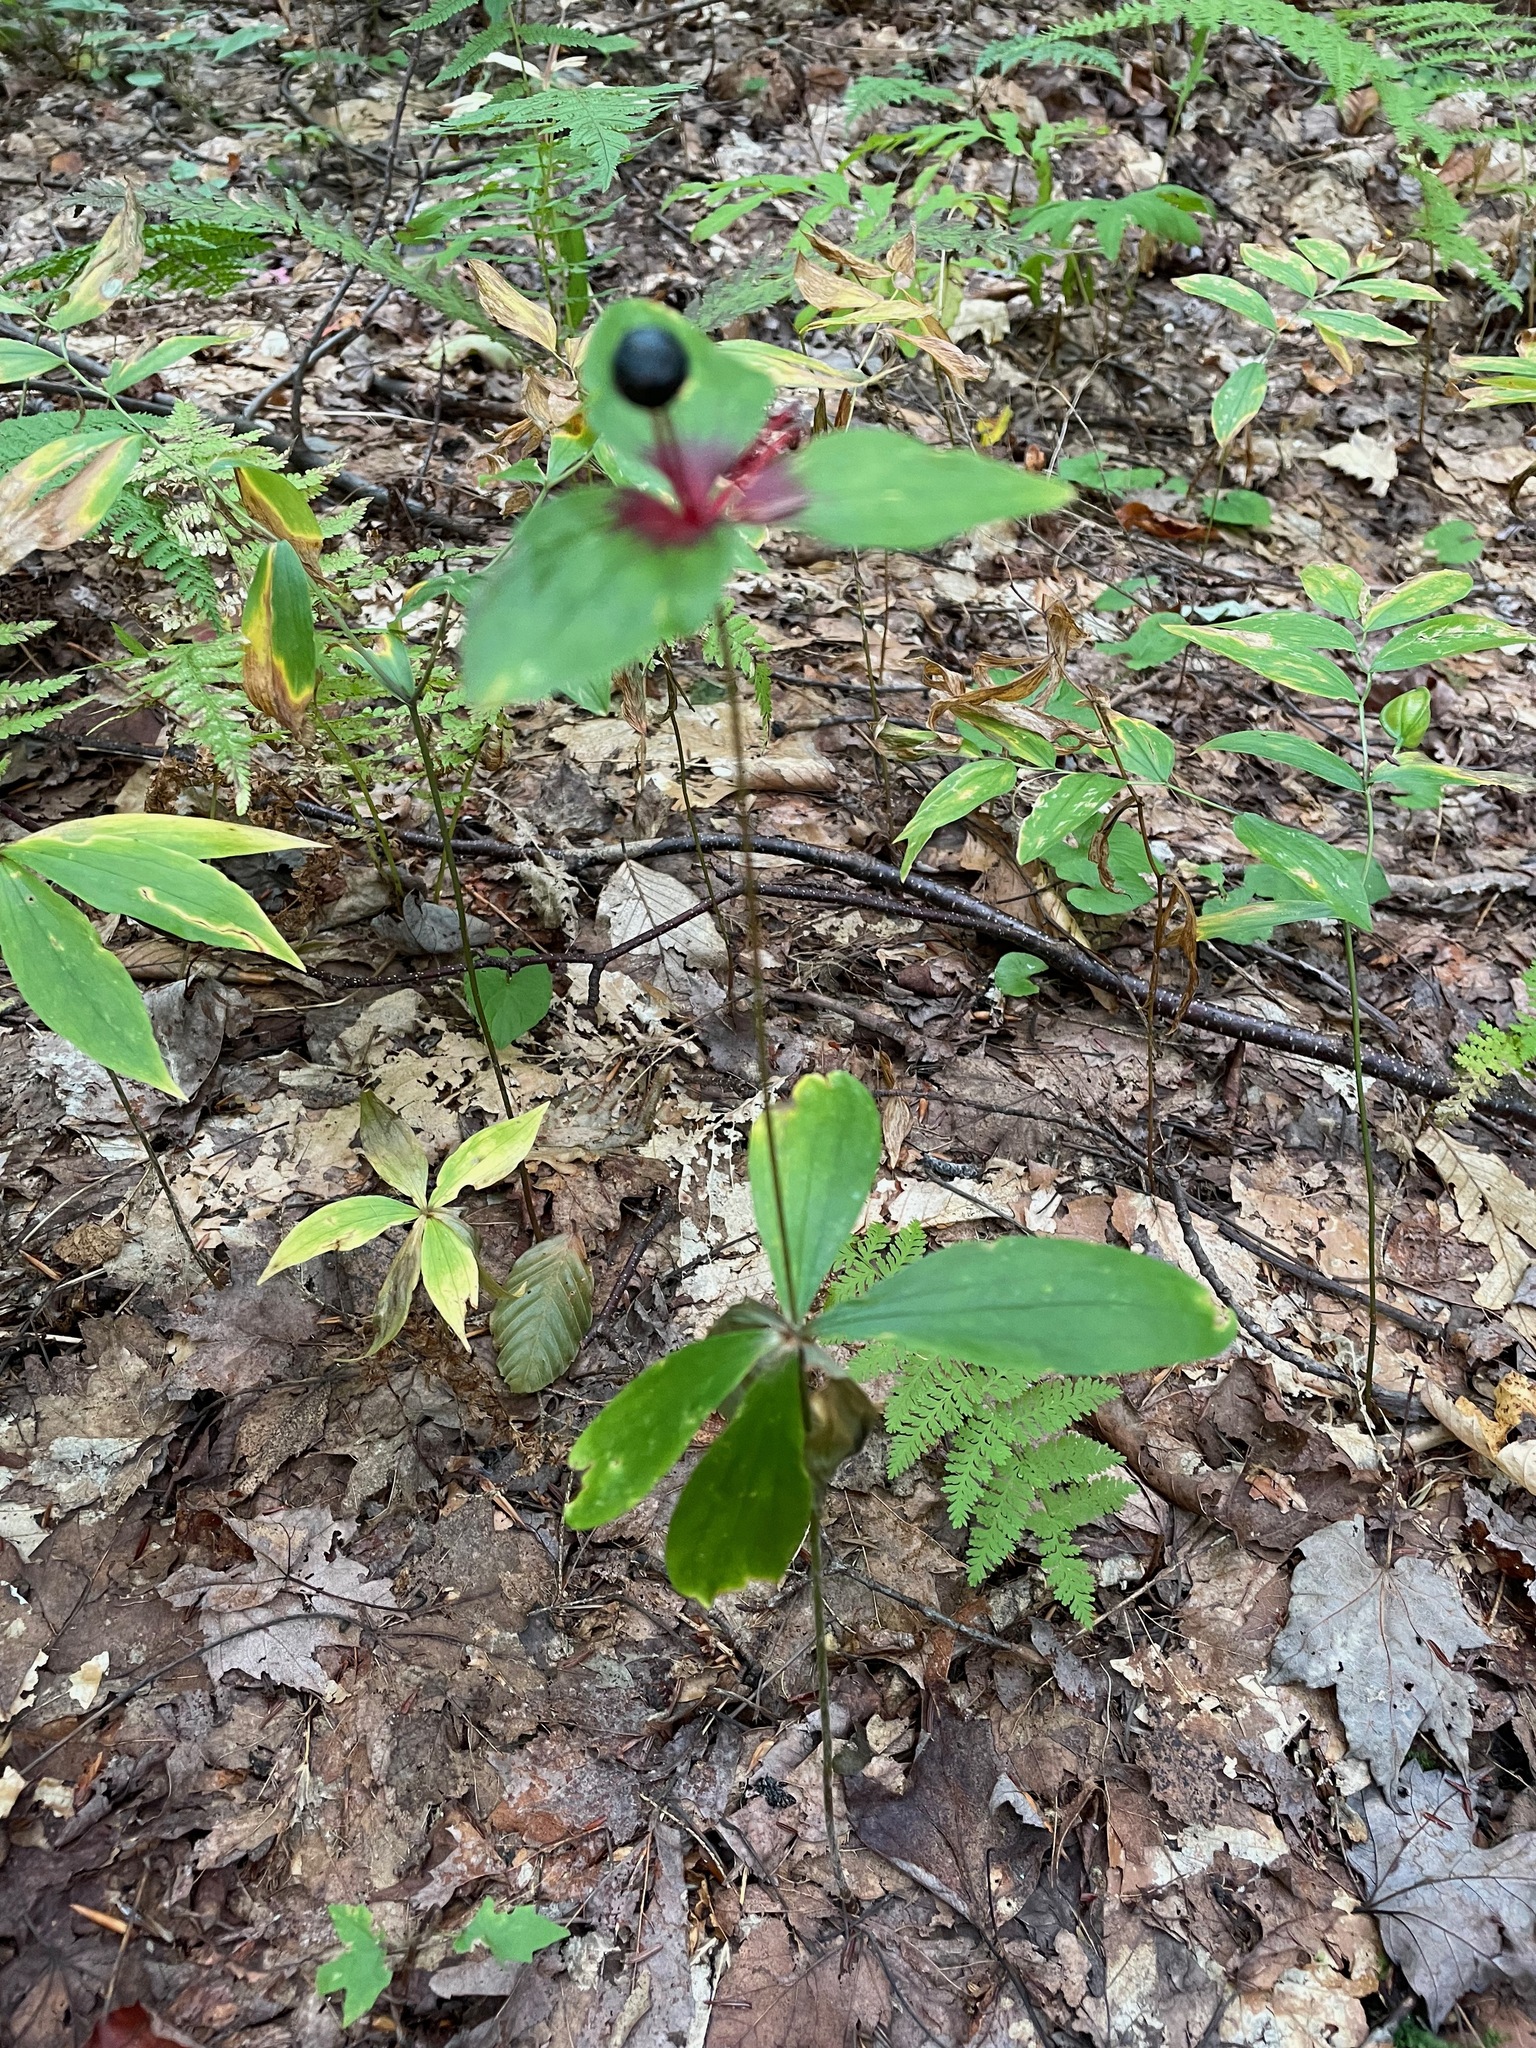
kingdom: Plantae
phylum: Tracheophyta
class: Liliopsida
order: Liliales
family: Liliaceae
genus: Medeola
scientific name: Medeola virginiana
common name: Indian cucumber-root
